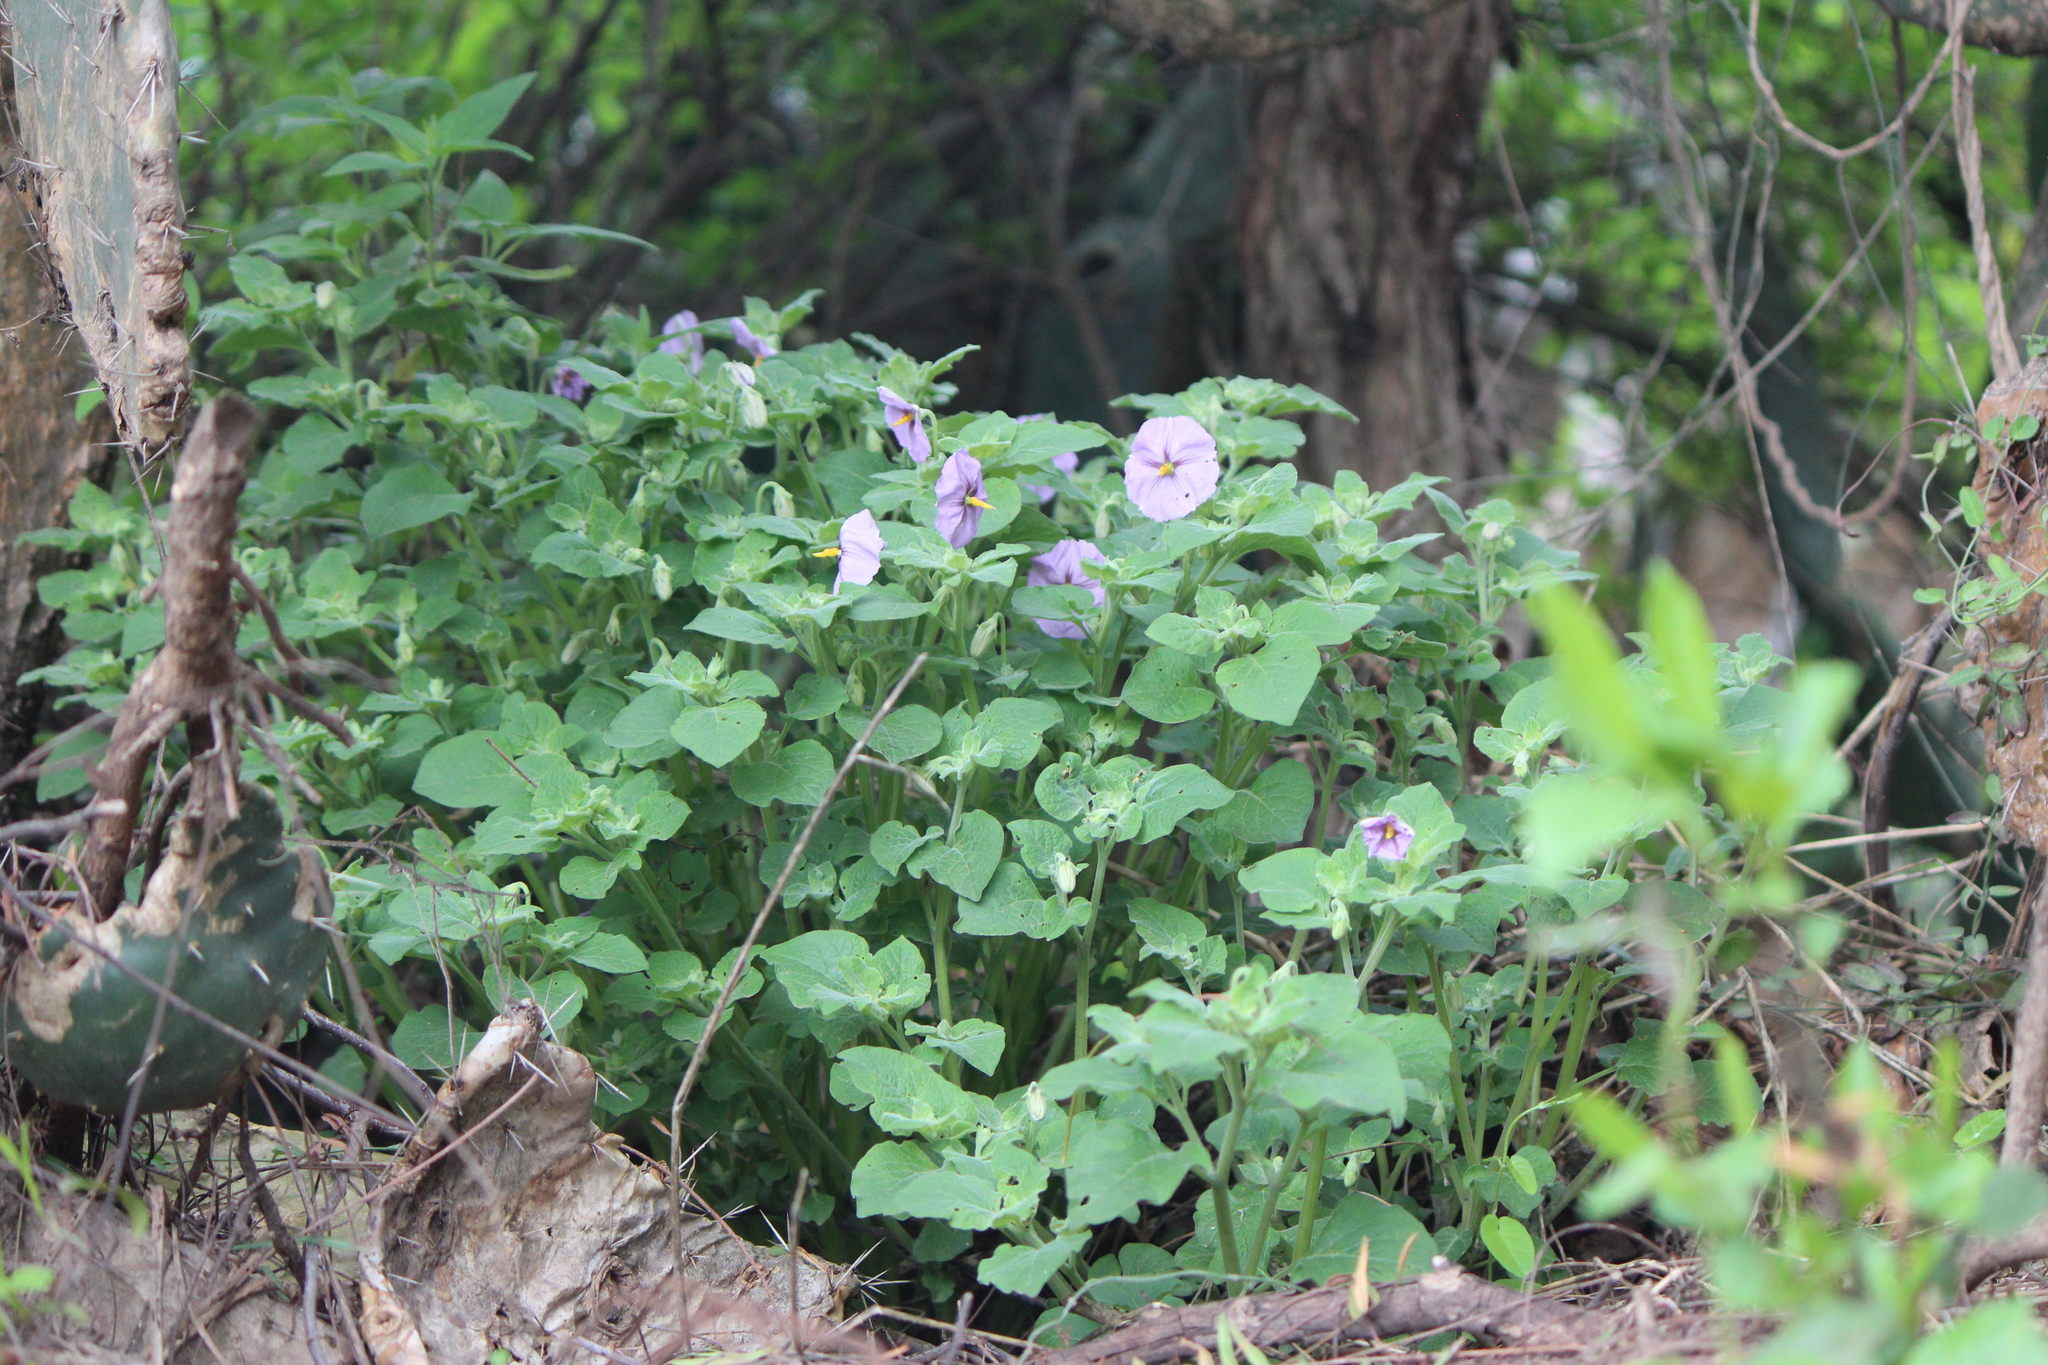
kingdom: Plantae
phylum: Tracheophyta
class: Magnoliopsida
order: Solanales
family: Solanaceae
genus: Lycianthes
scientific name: Lycianthes dejecta
